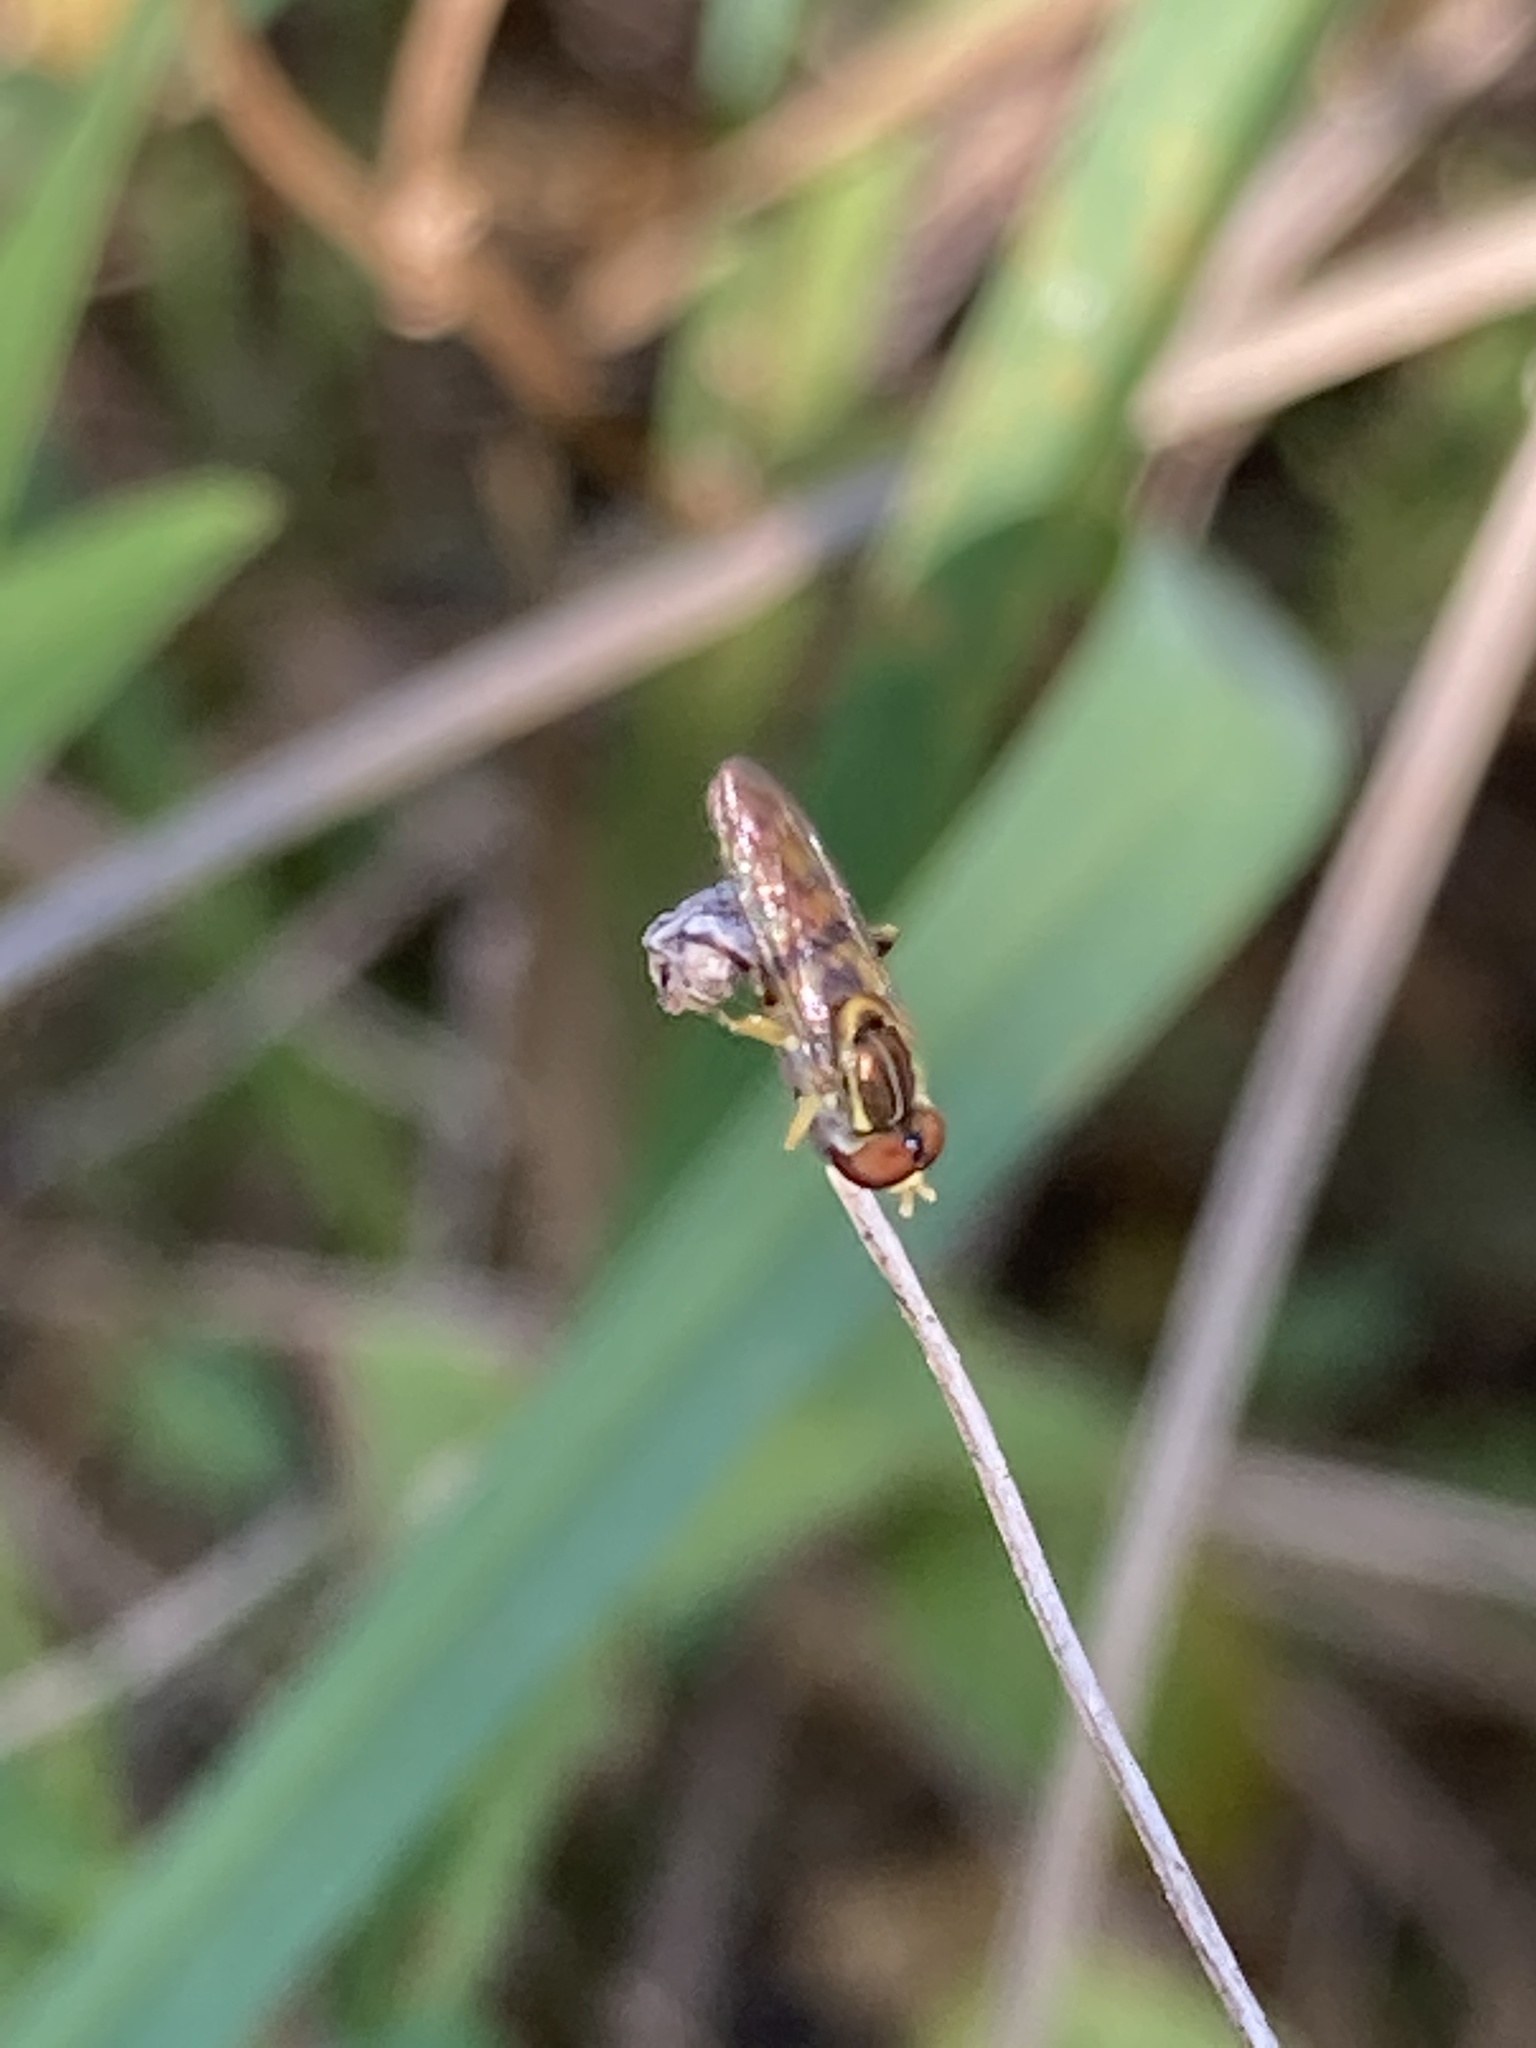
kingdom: Animalia
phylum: Arthropoda
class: Insecta
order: Diptera
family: Syrphidae
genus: Toxomerus
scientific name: Toxomerus floralis
